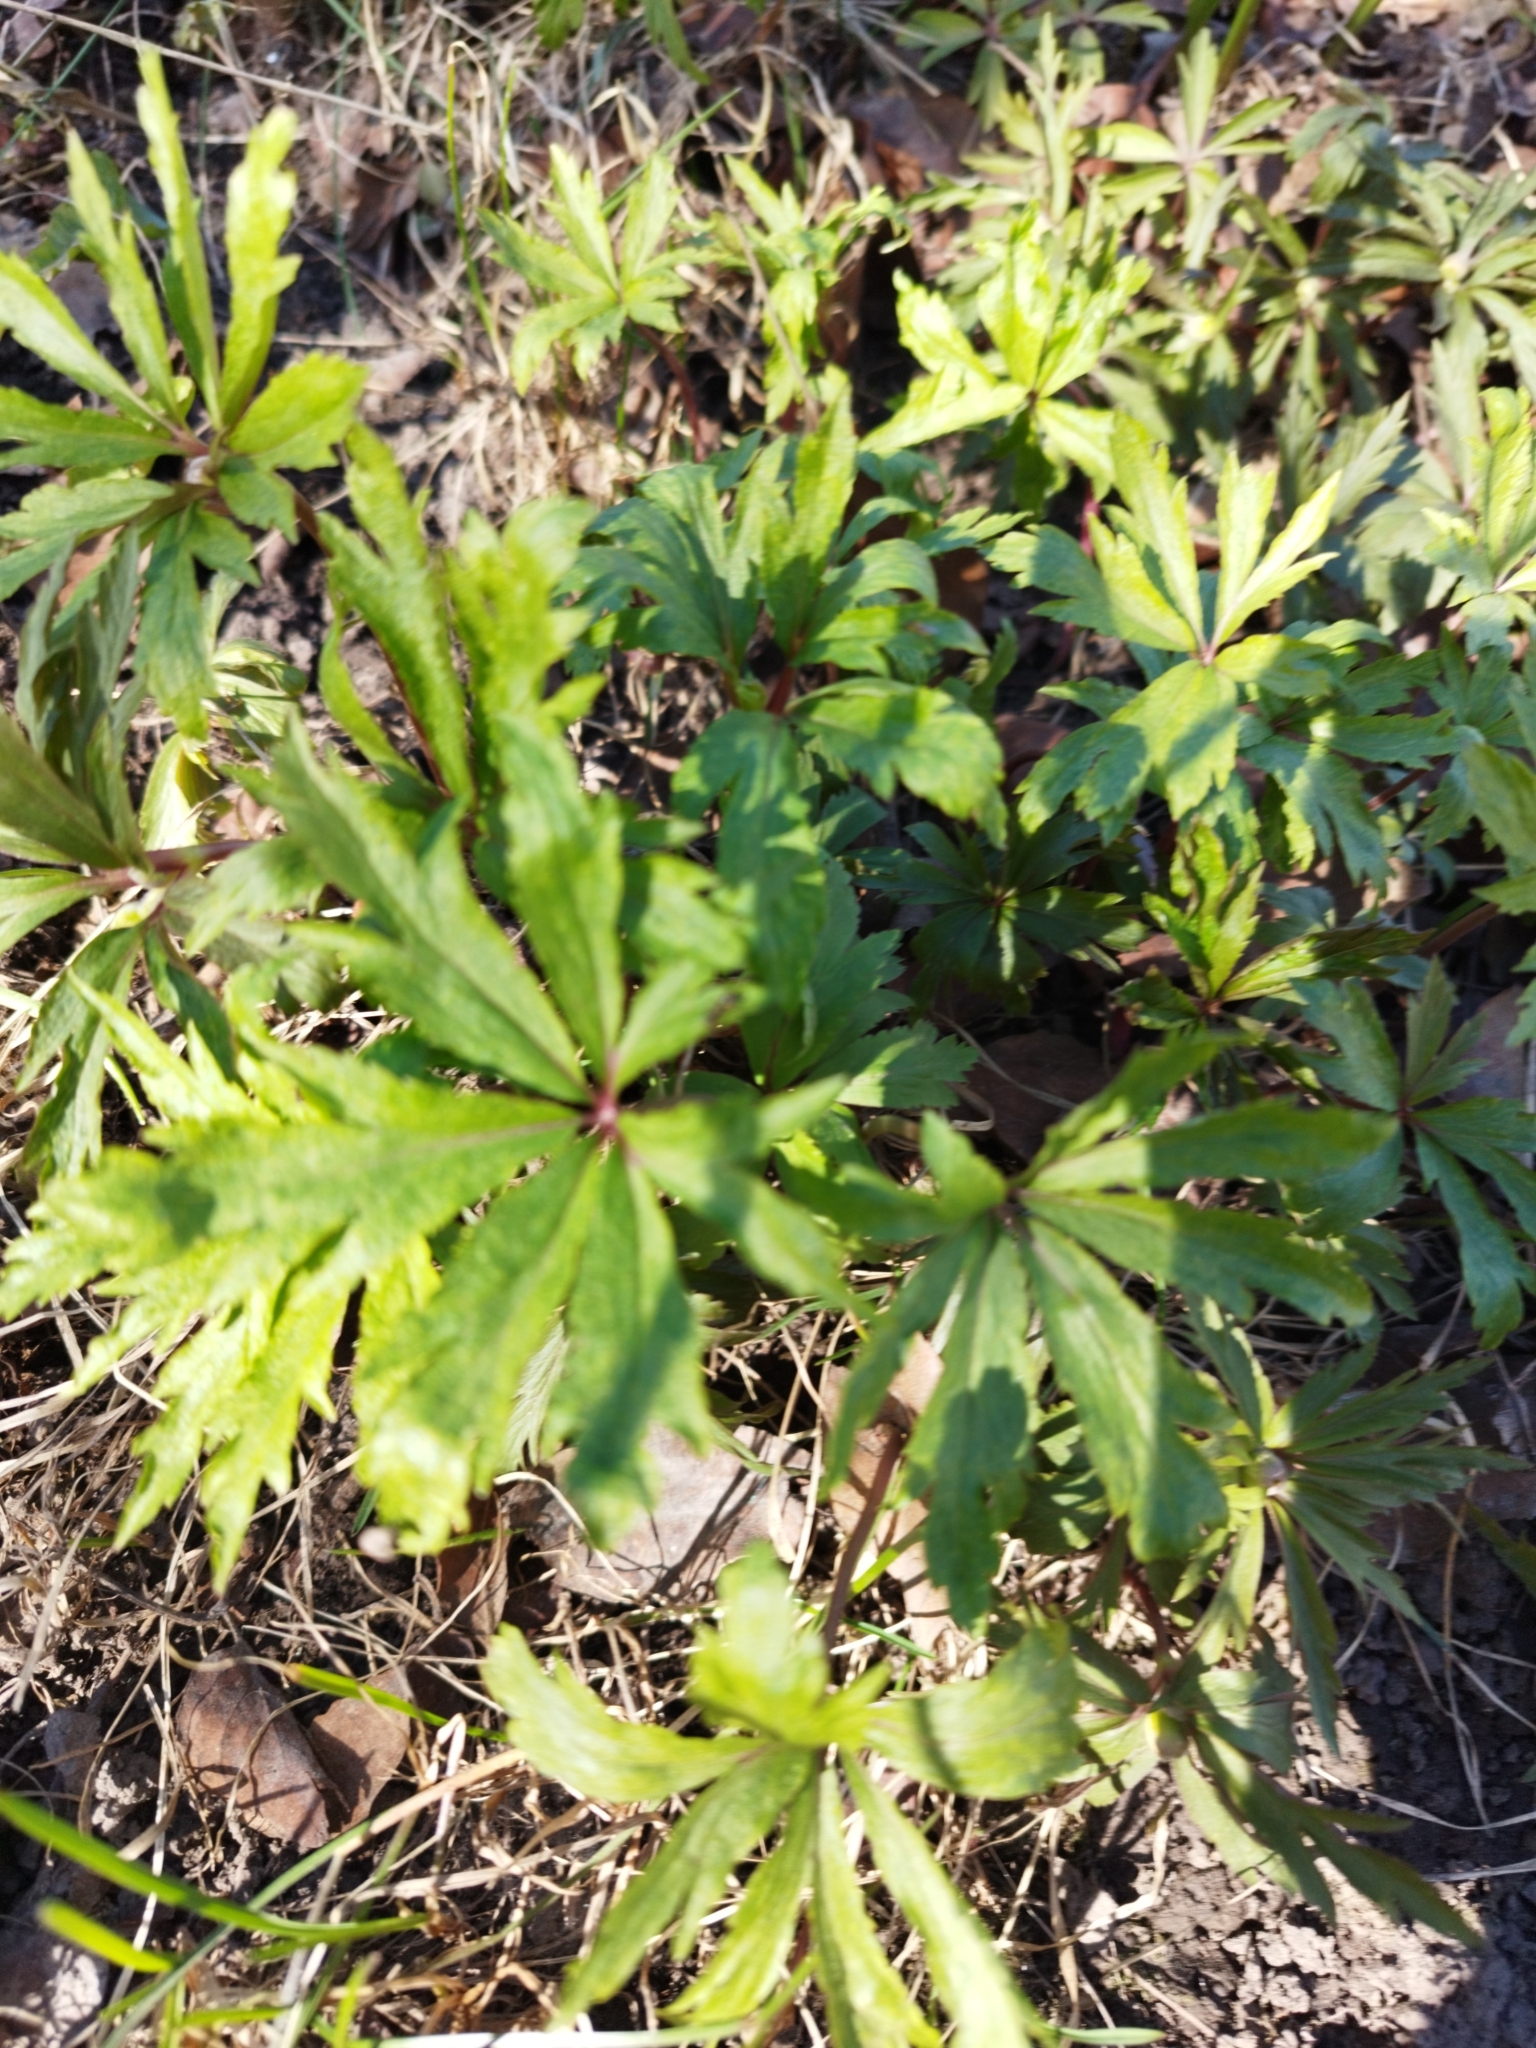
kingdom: Plantae
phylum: Tracheophyta
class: Magnoliopsida
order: Ranunculales
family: Ranunculaceae
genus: Anemone
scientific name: Anemone ranunculoides
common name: Yellow anemone
